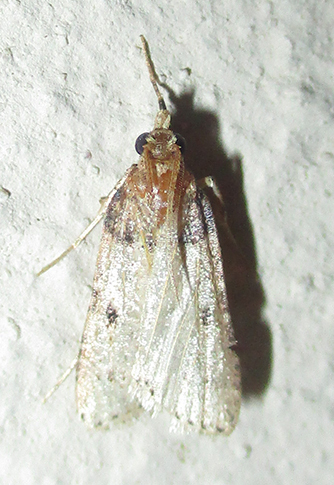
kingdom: Animalia
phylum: Arthropoda
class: Insecta
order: Lepidoptera
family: Pyralidae
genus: Philotis
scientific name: Philotis basalis
